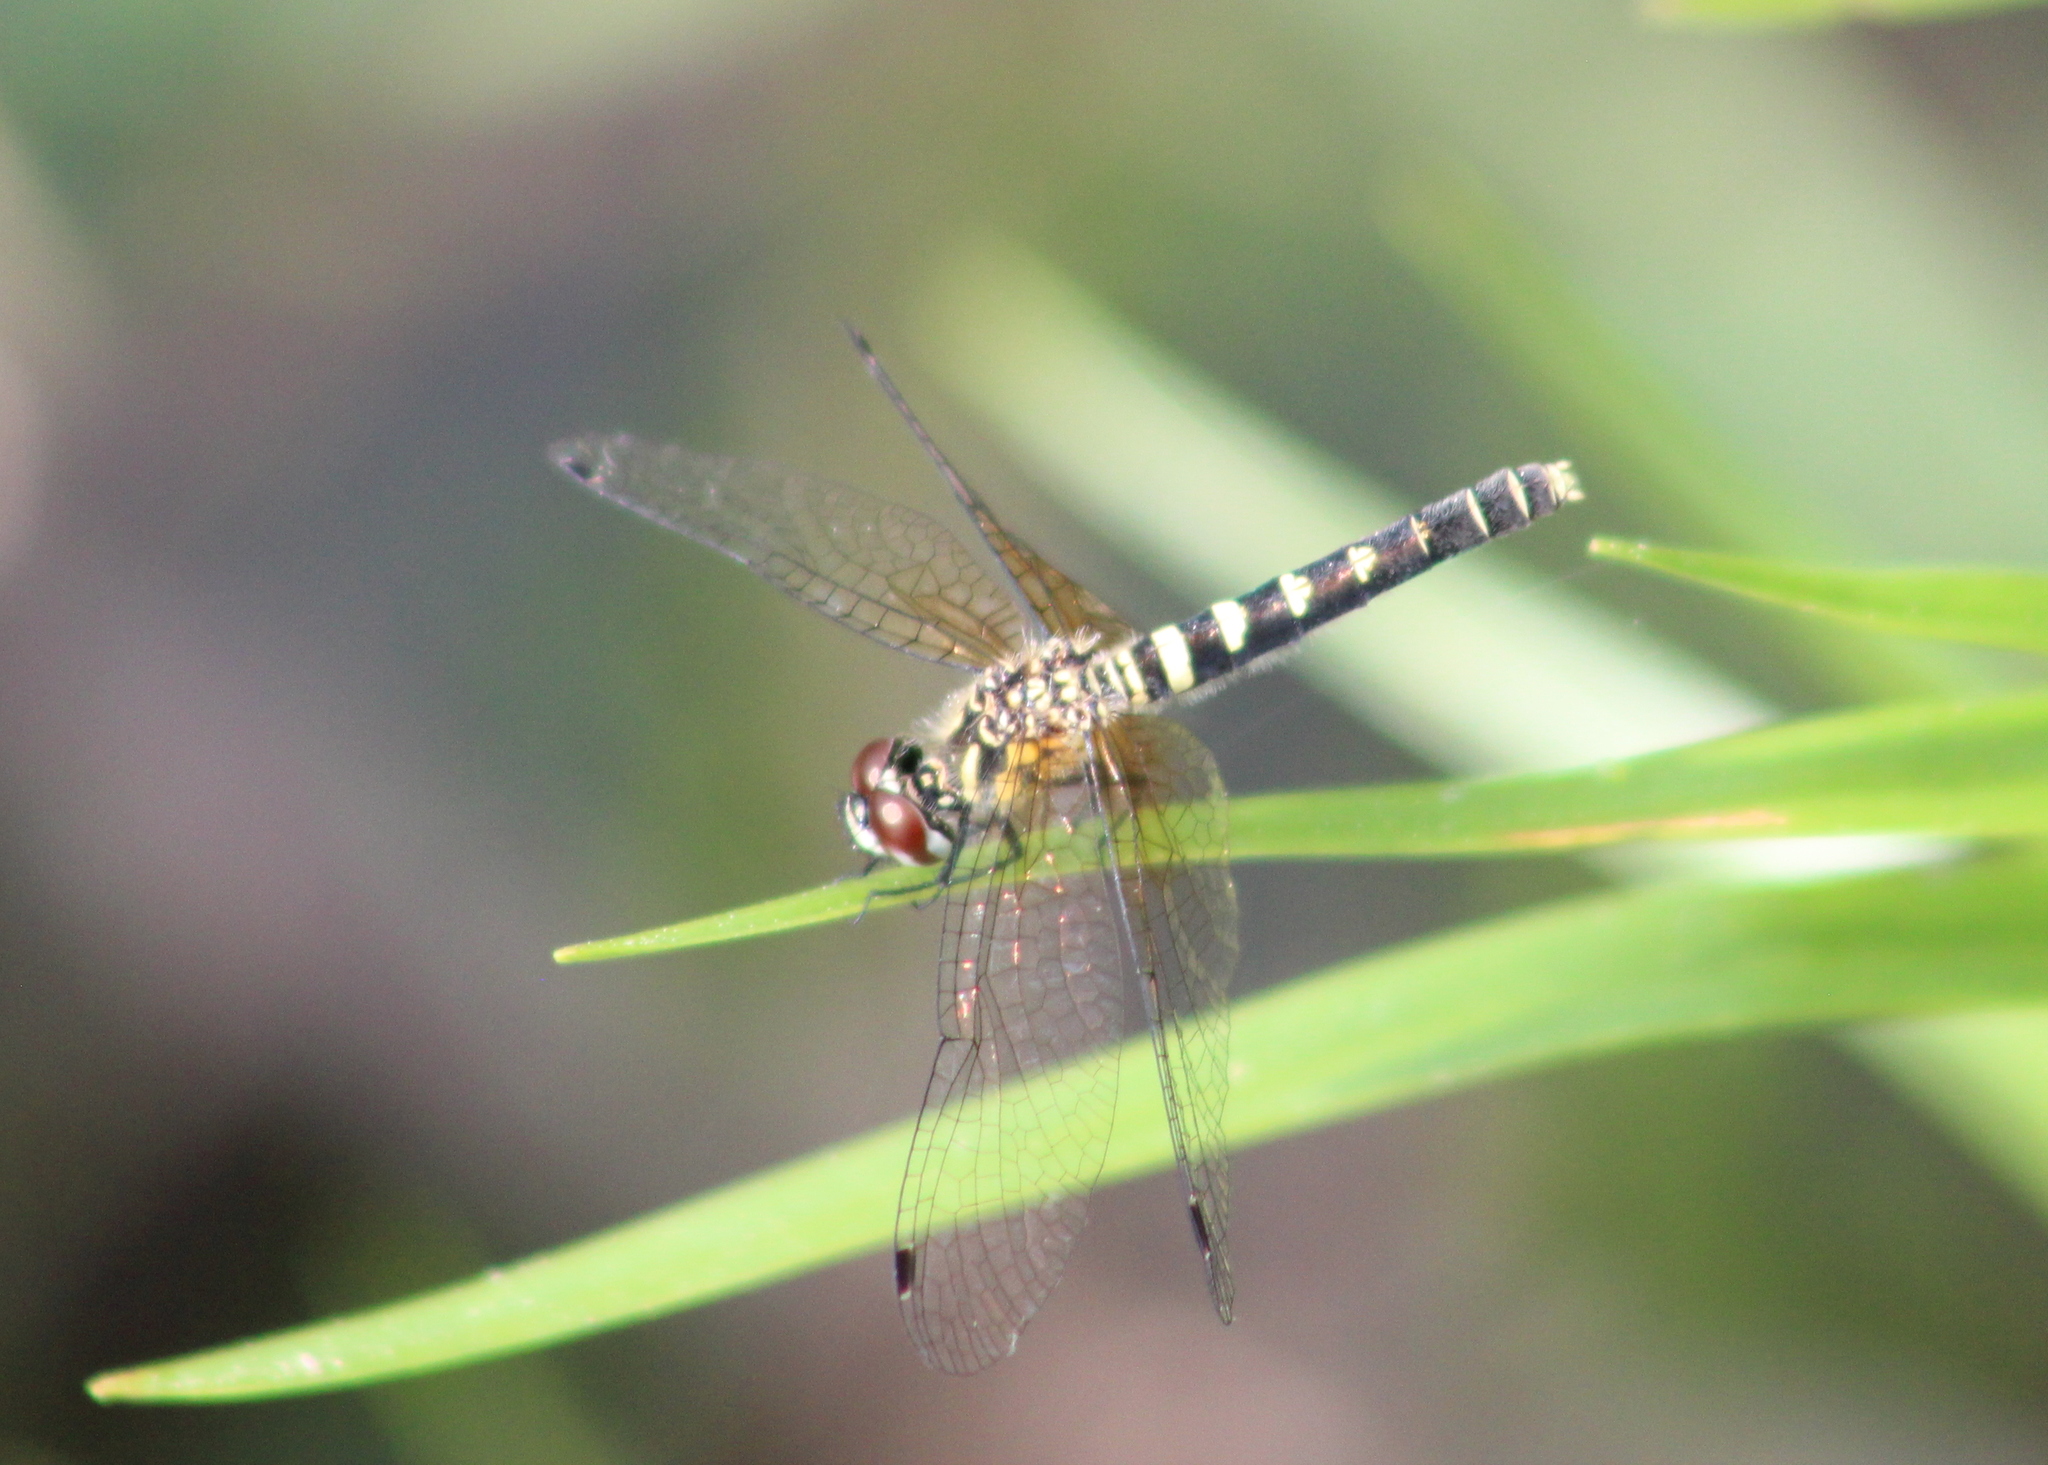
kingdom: Animalia
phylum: Arthropoda
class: Insecta
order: Odonata
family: Libellulidae
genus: Nannothemis
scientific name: Nannothemis bella
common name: Elfin skimmer
